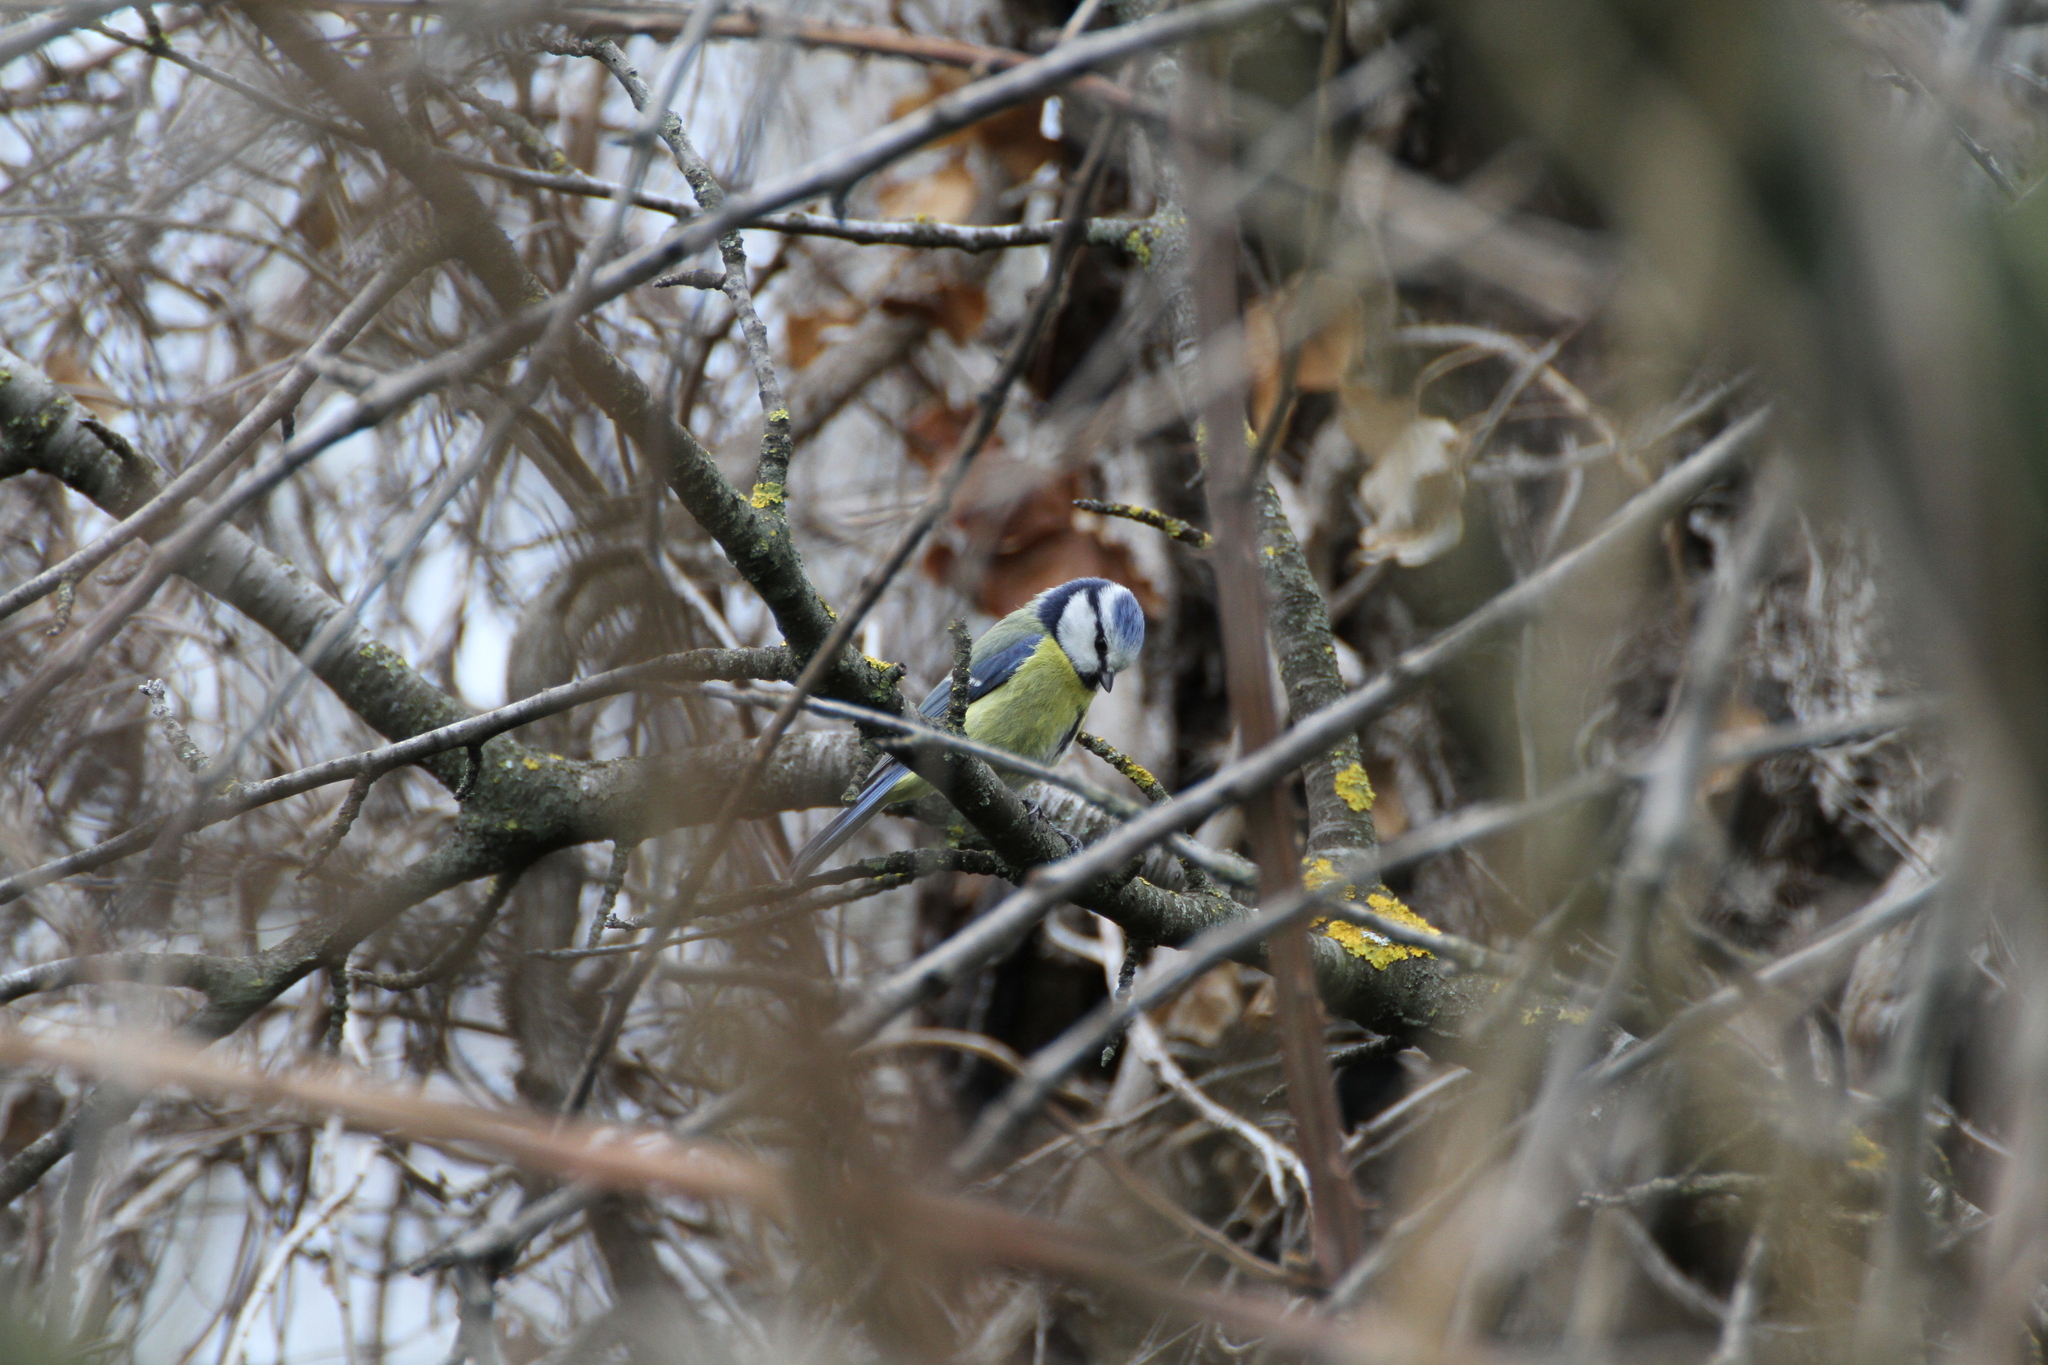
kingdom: Animalia
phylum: Chordata
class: Aves
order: Passeriformes
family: Paridae
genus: Cyanistes
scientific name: Cyanistes caeruleus
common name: Eurasian blue tit
